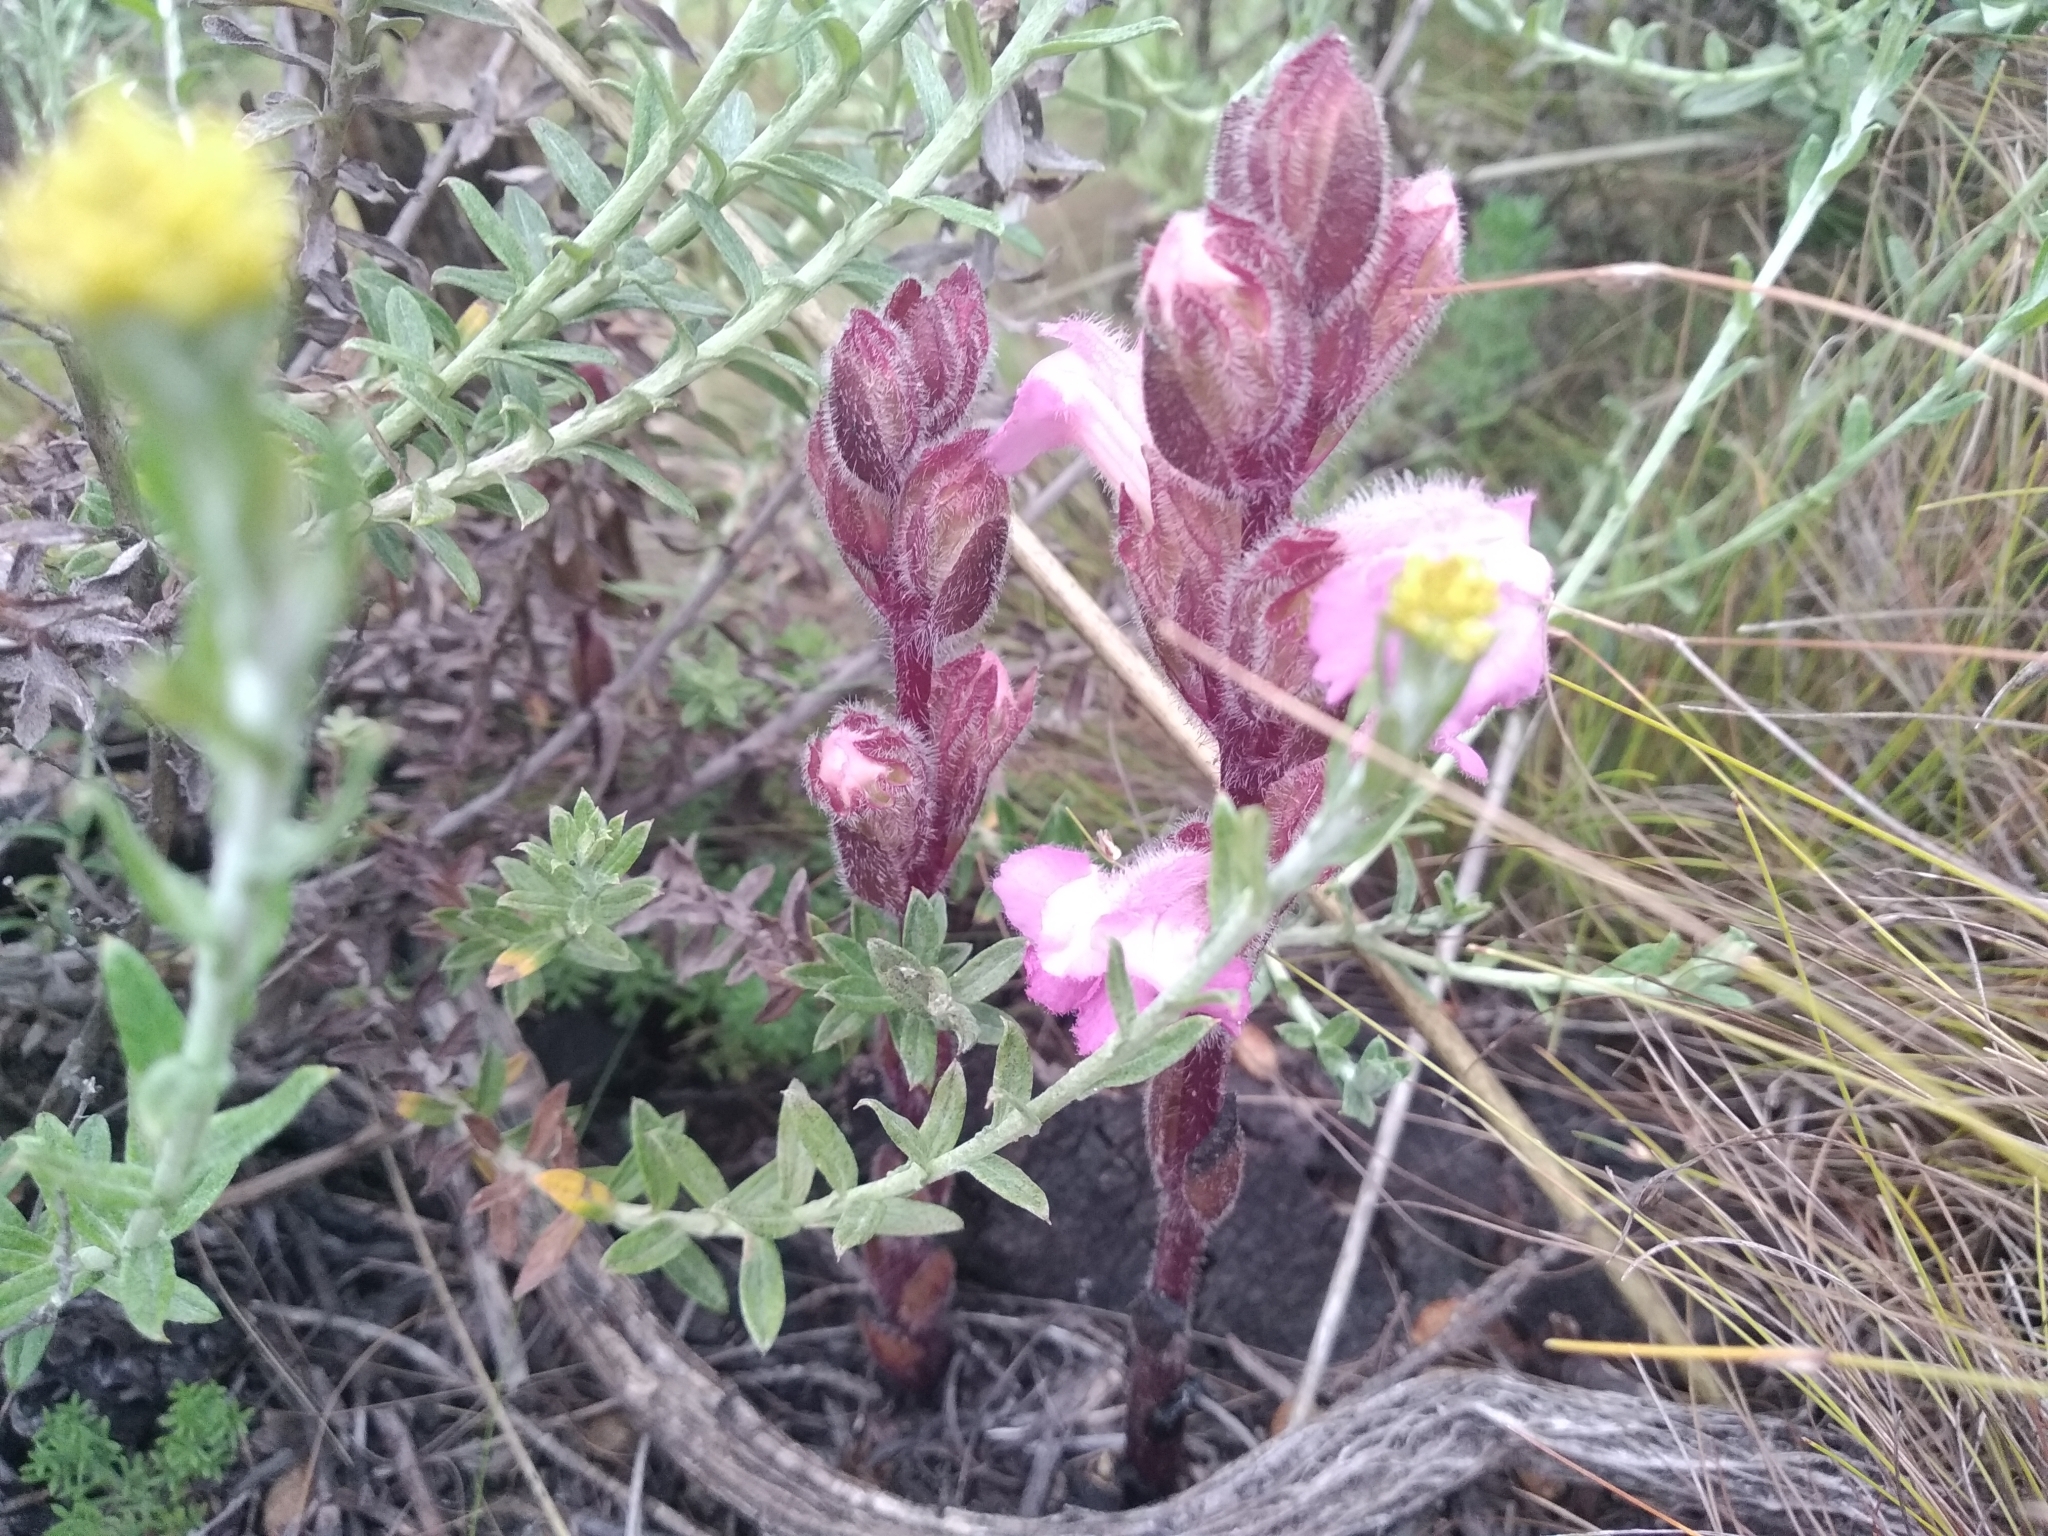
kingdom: Plantae
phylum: Tracheophyta
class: Magnoliopsida
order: Lamiales
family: Orobanchaceae
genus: Harveya
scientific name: Harveya pauciflora
